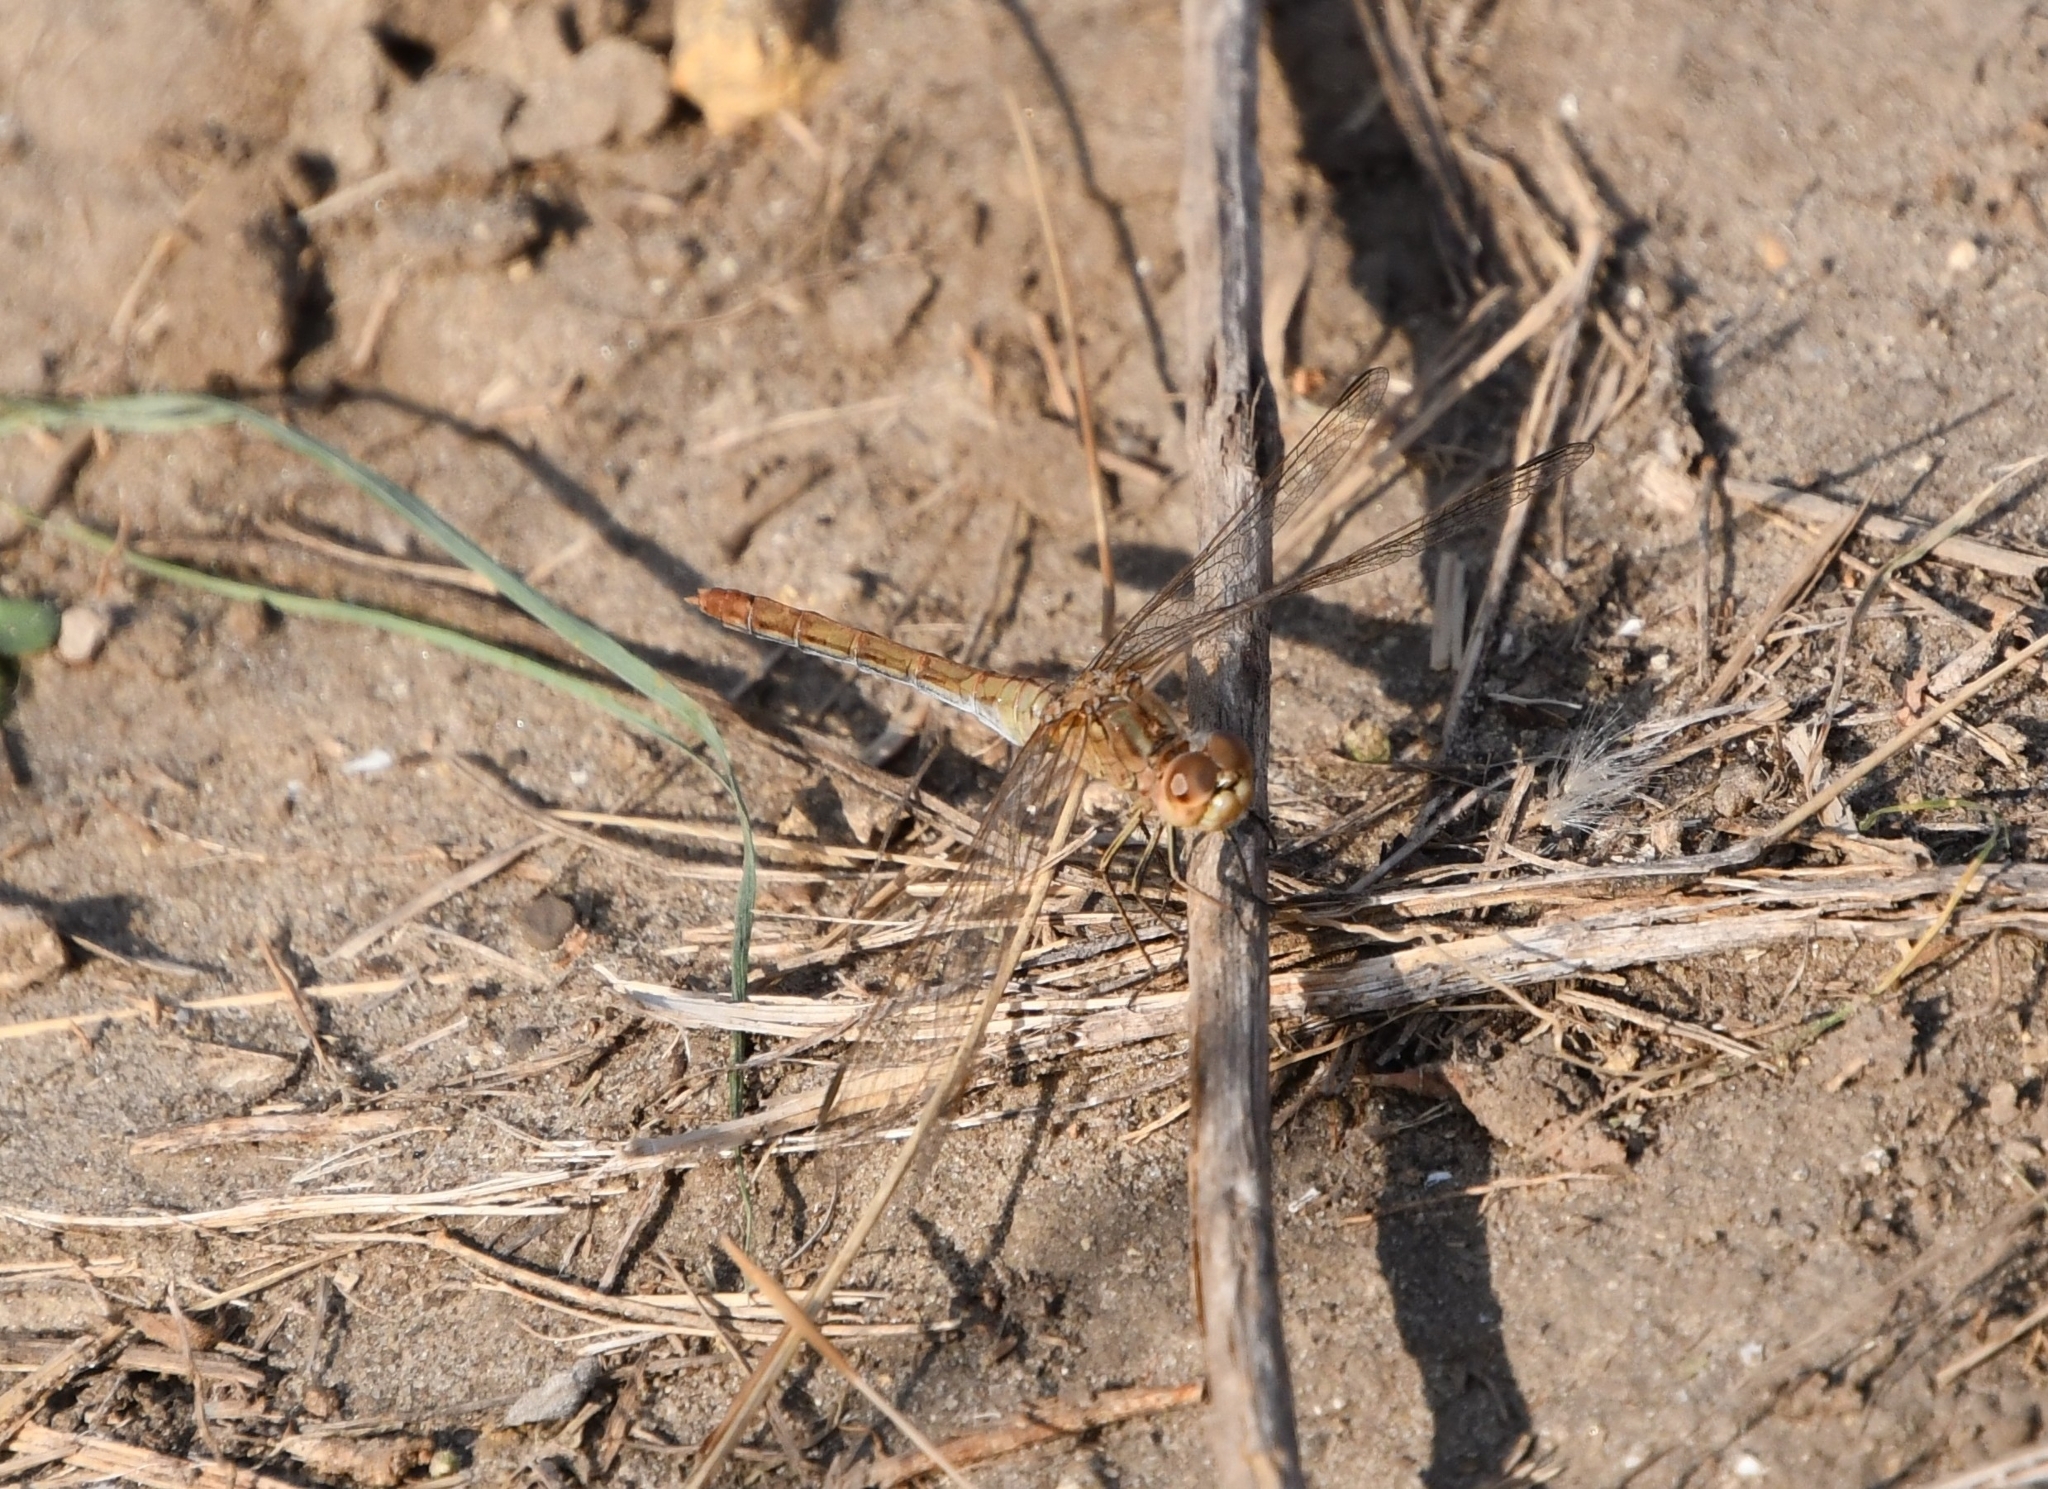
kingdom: Animalia
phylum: Arthropoda
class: Insecta
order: Odonata
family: Libellulidae
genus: Sympetrum
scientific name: Sympetrum meridionale
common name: Southern darter
